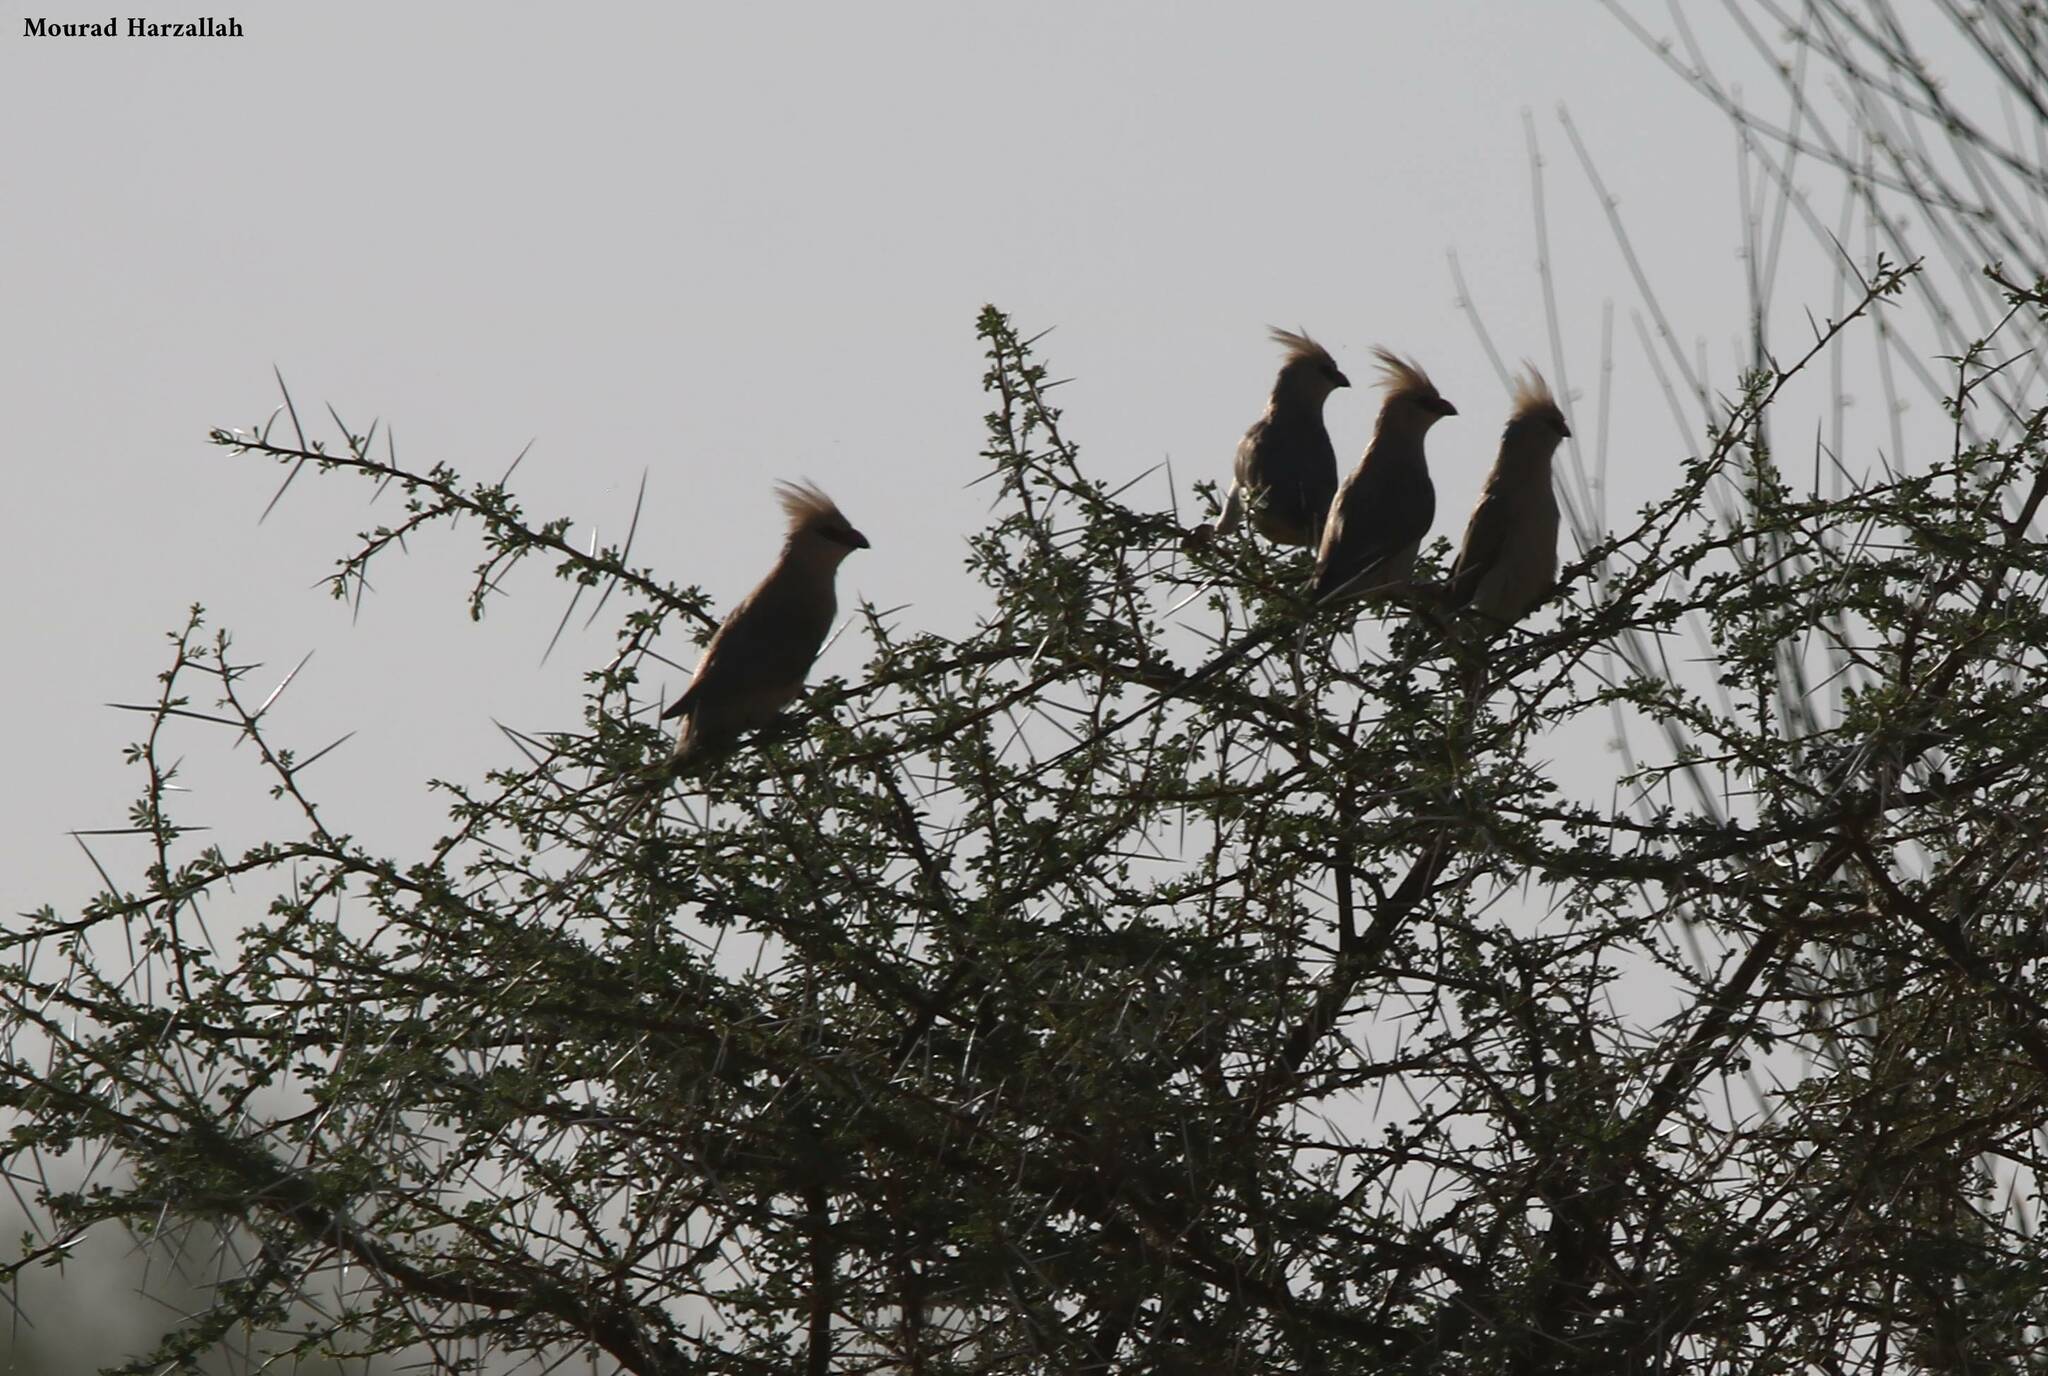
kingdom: Animalia
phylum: Chordata
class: Aves
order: Coliiformes
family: Coliidae
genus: Urocolius
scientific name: Urocolius macrourus
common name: Blue-naped mousebird
